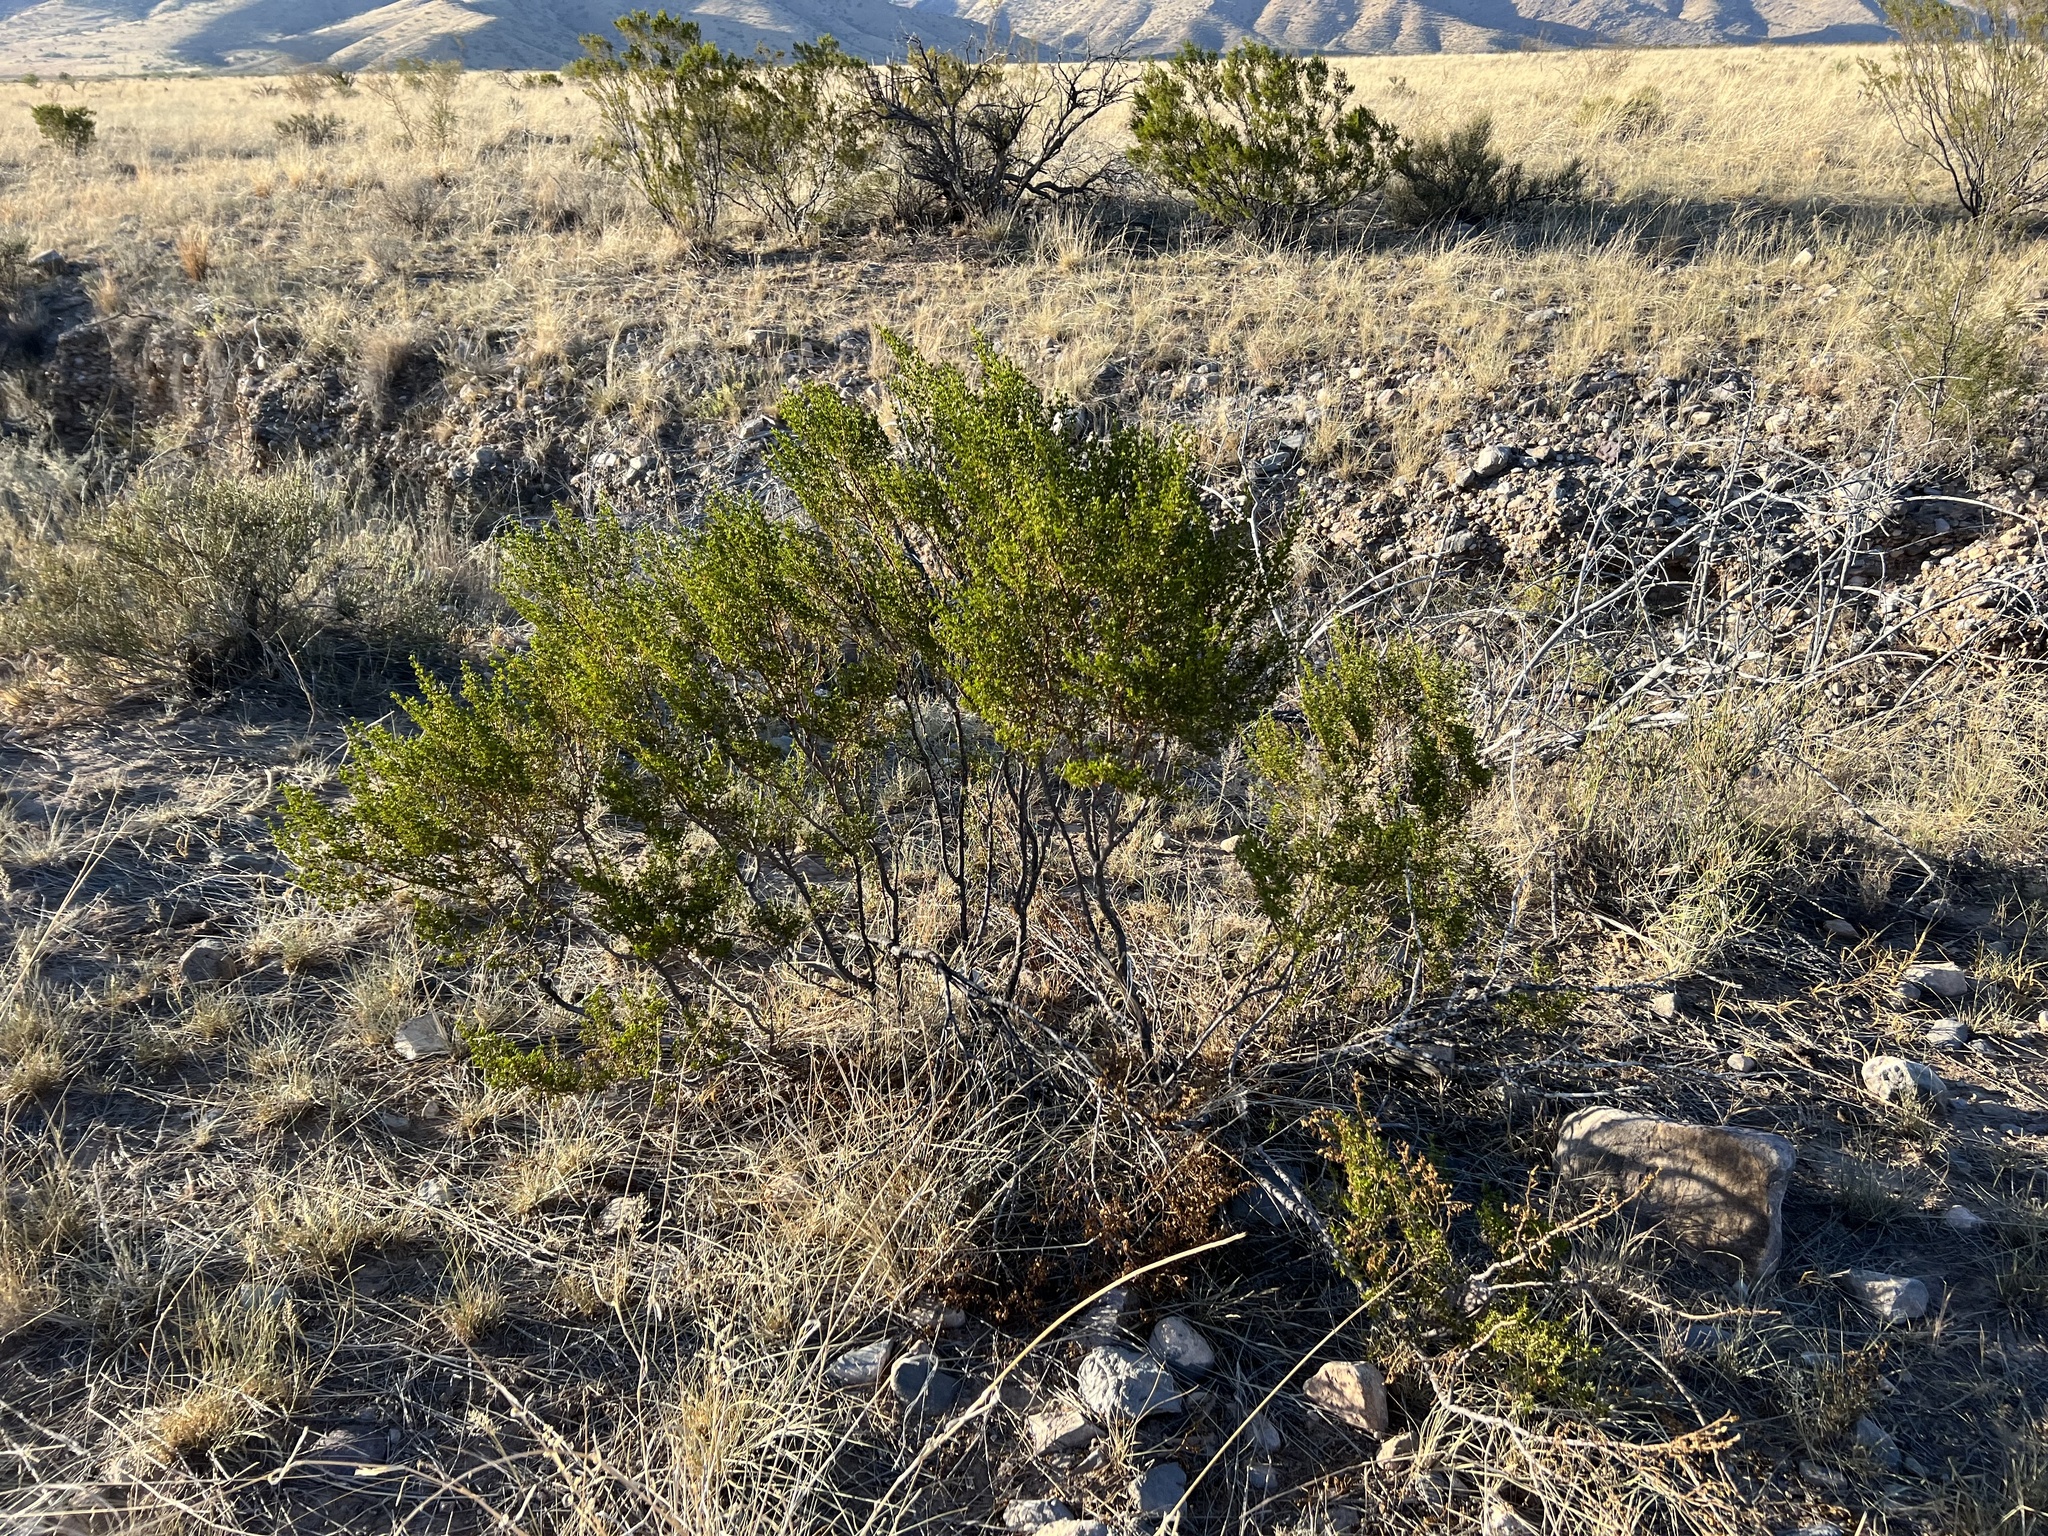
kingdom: Plantae
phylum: Tracheophyta
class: Magnoliopsida
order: Zygophyllales
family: Zygophyllaceae
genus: Larrea
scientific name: Larrea tridentata
